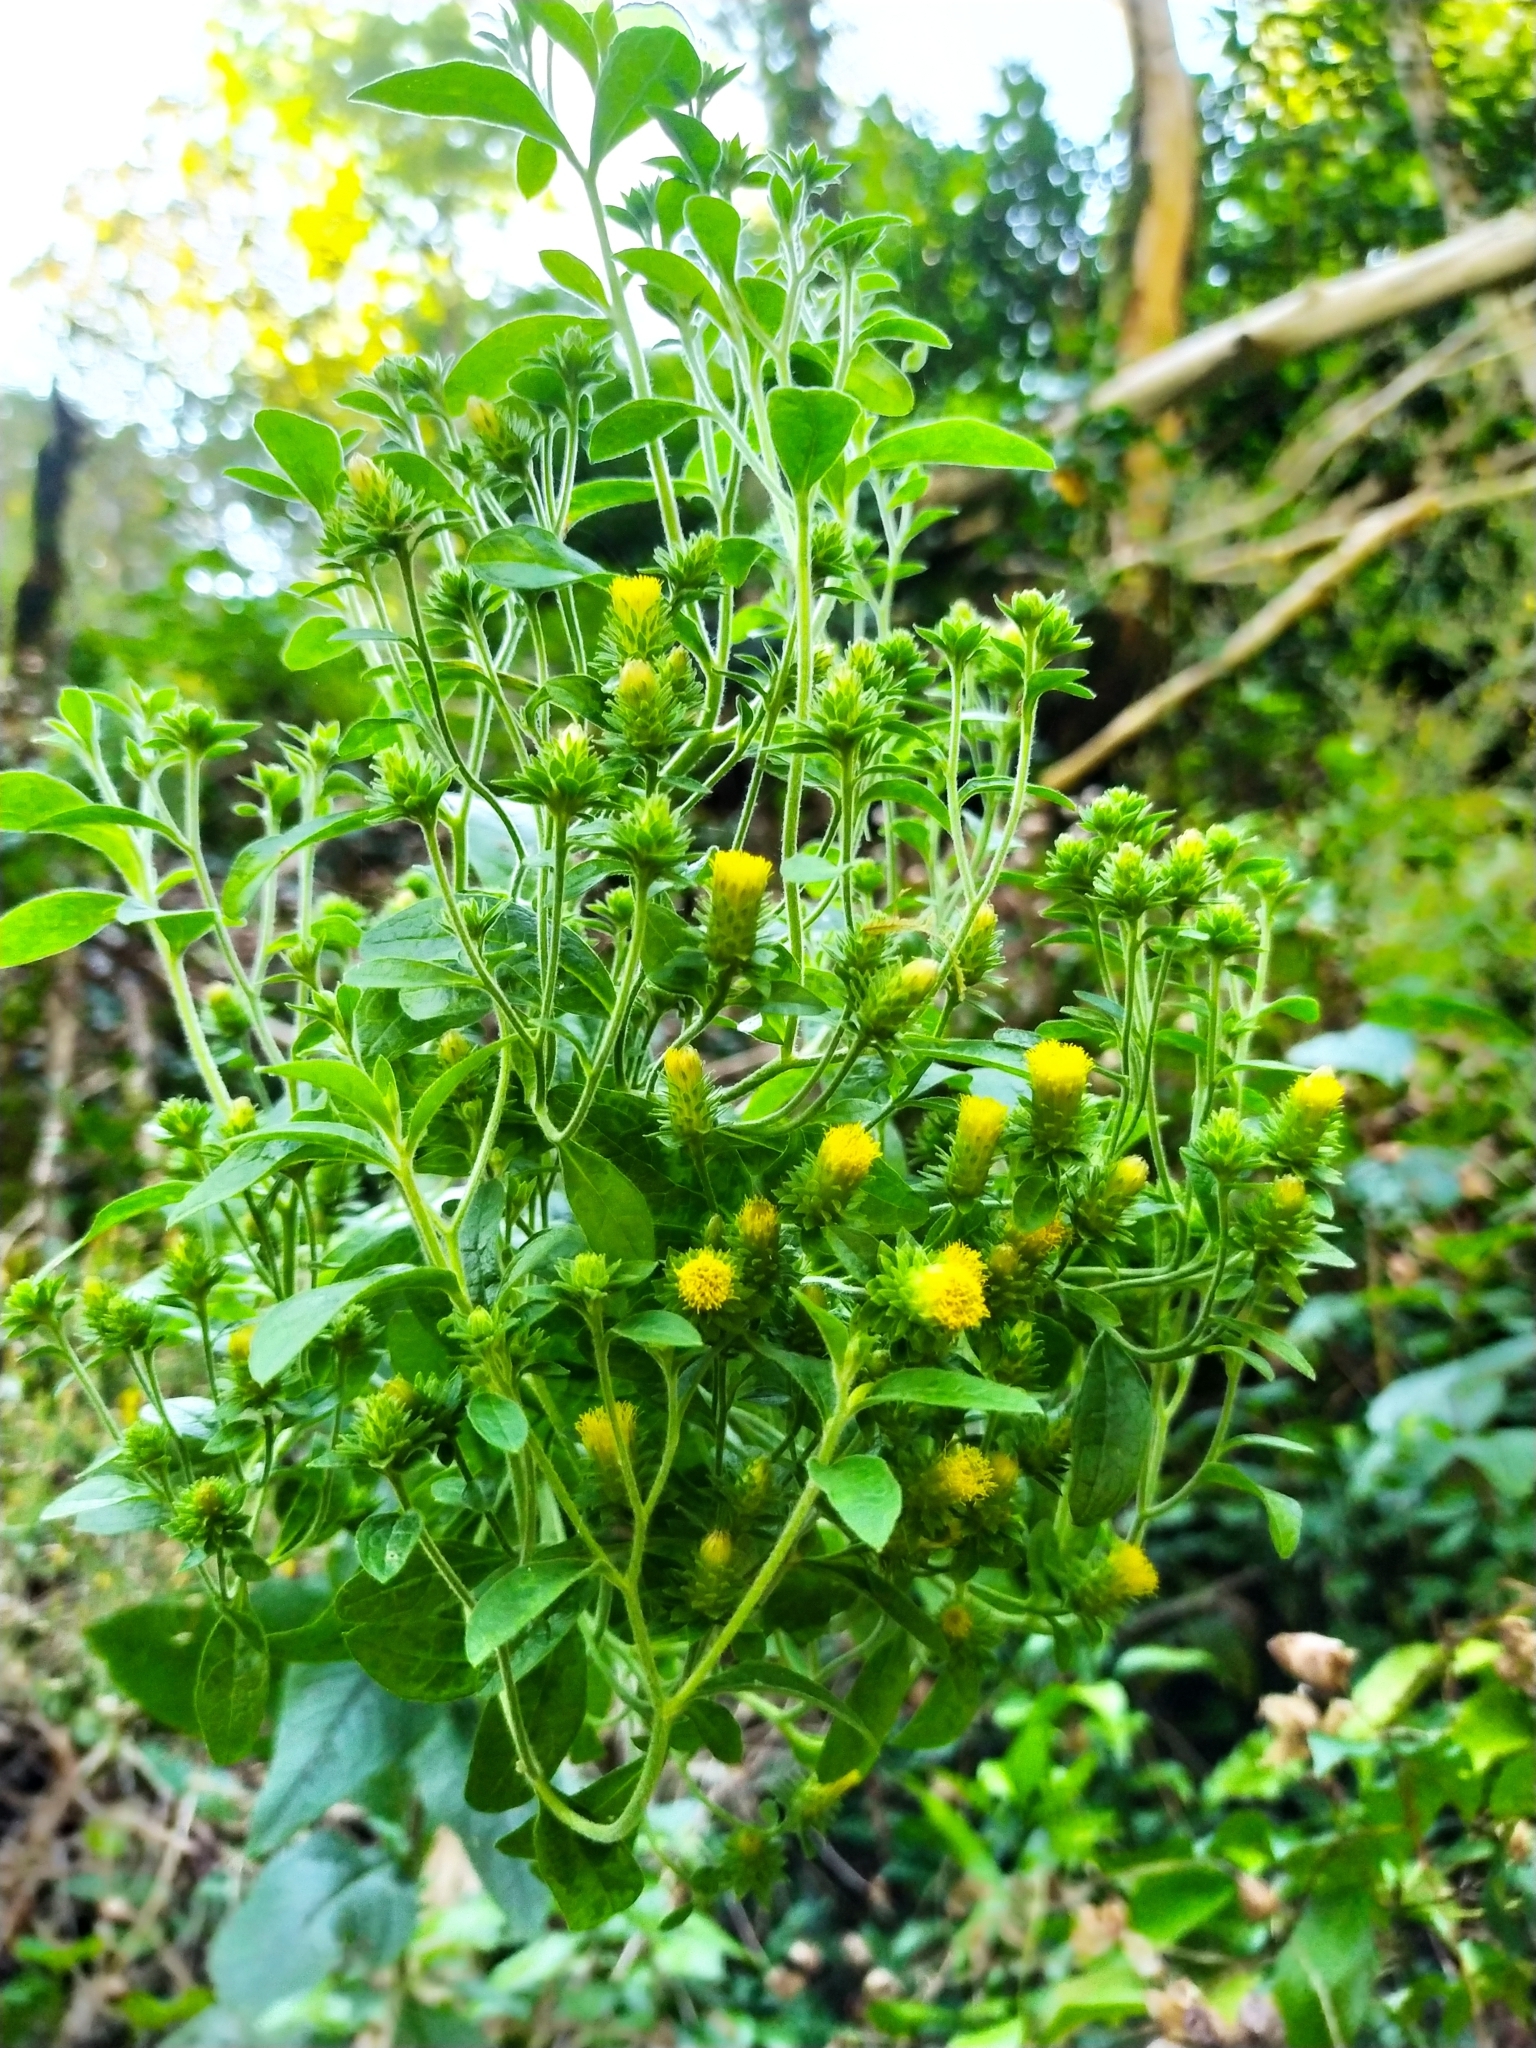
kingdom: Plantae
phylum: Tracheophyta
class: Magnoliopsida
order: Asterales
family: Asteraceae
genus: Pentanema
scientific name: Pentanema squarrosum
